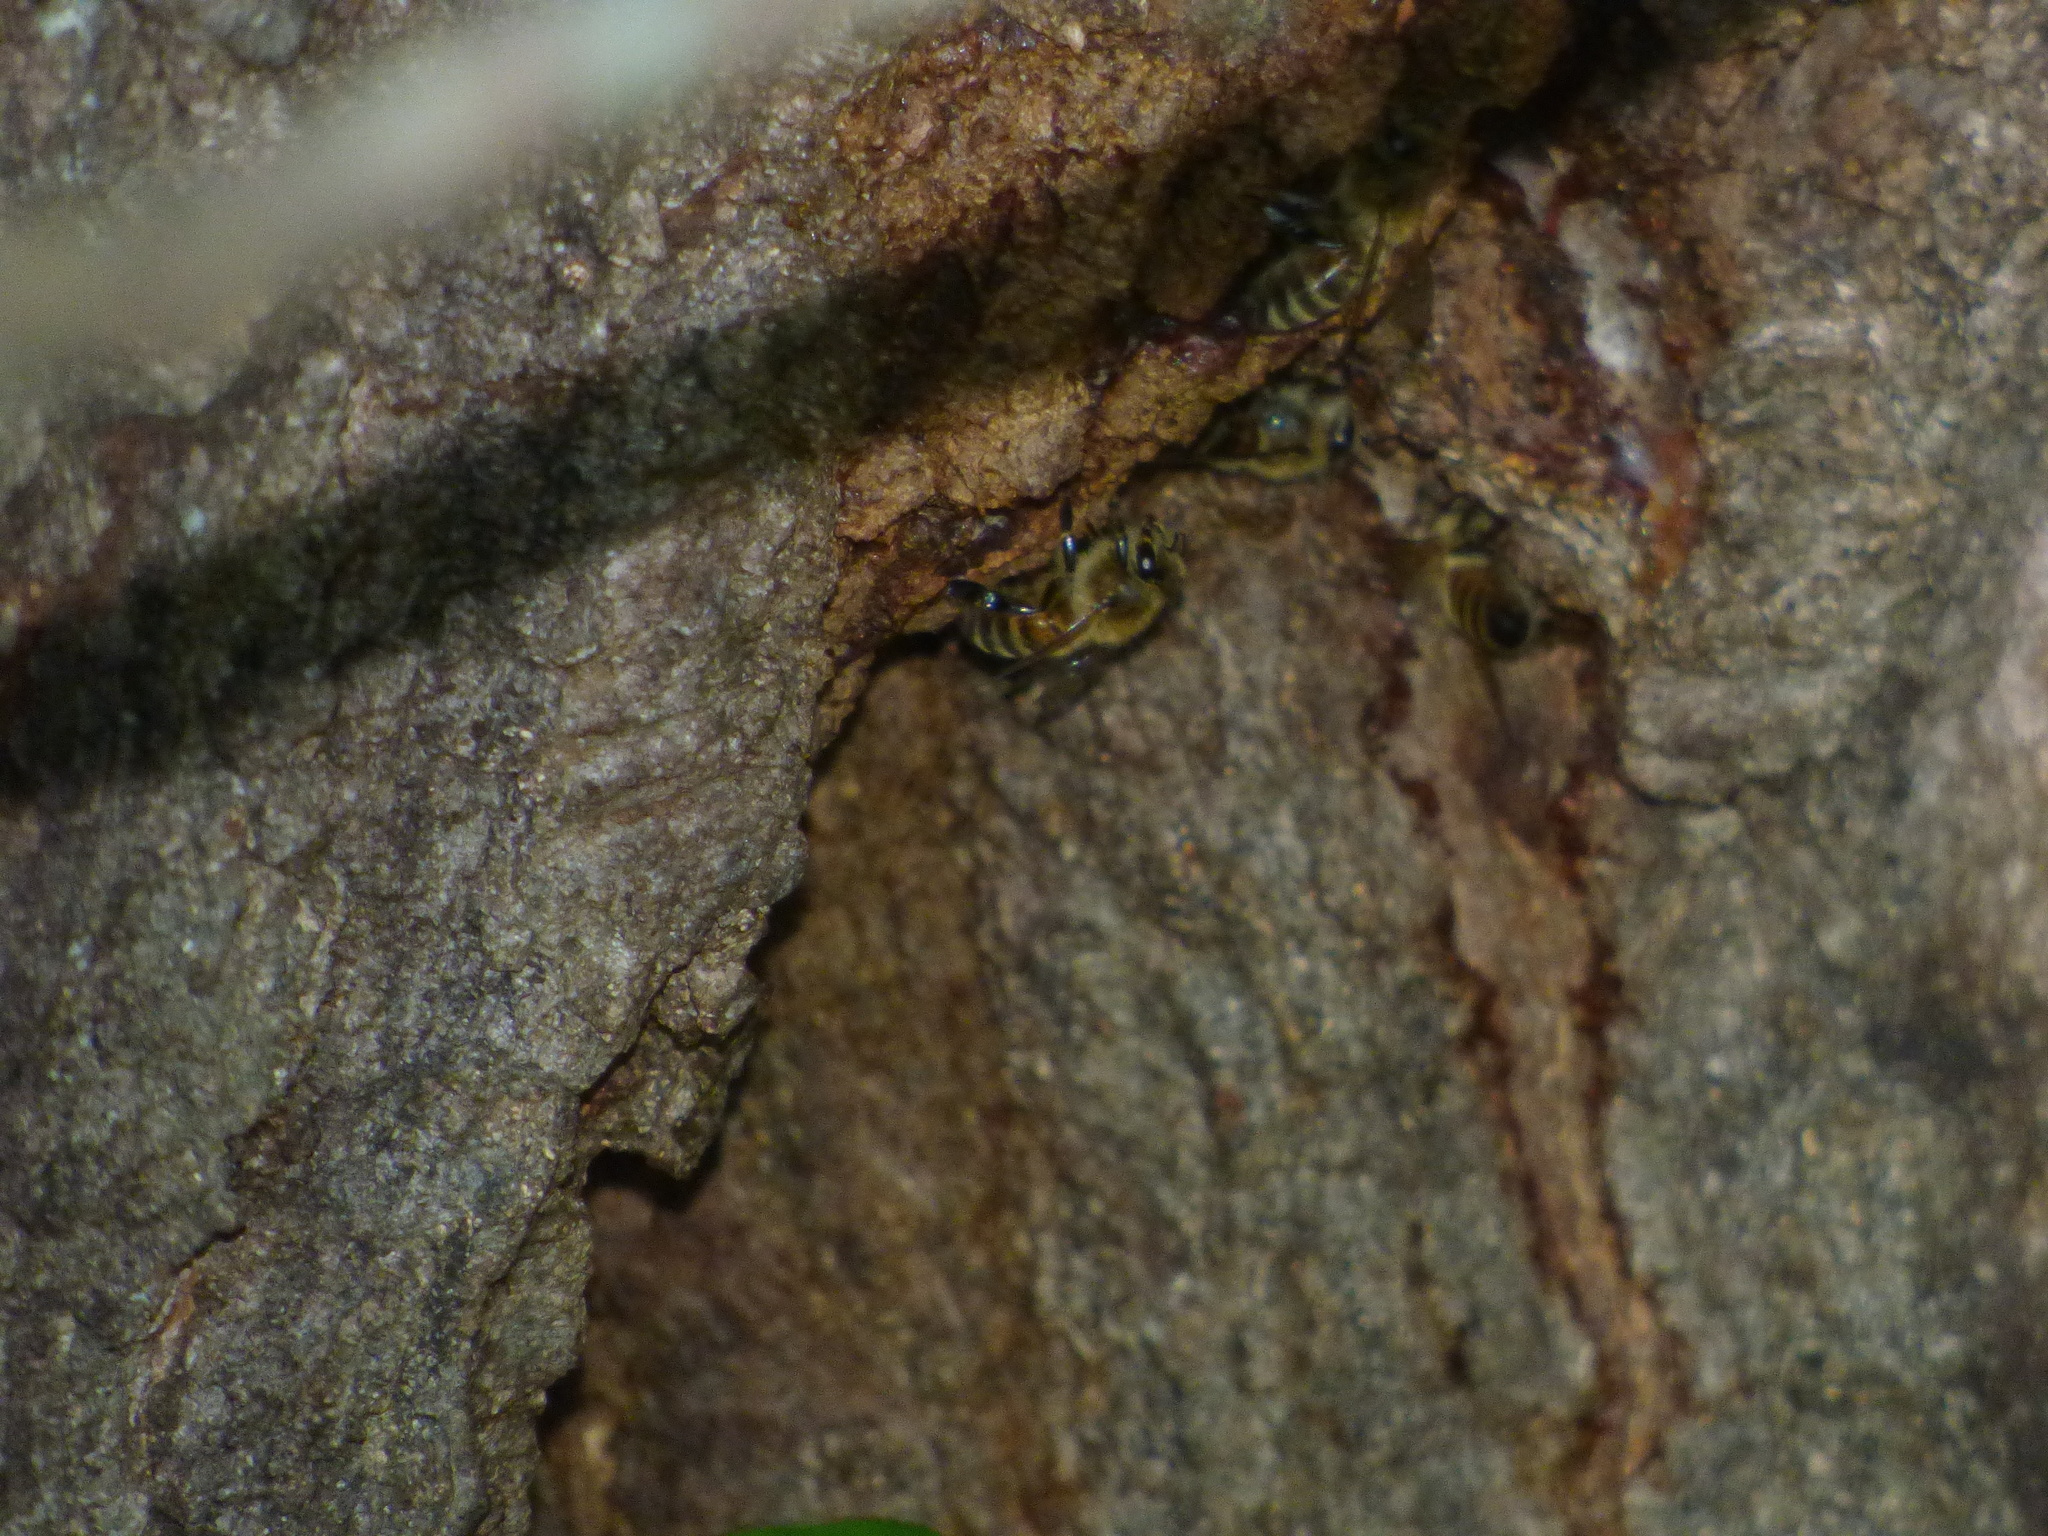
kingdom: Animalia
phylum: Arthropoda
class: Insecta
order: Hymenoptera
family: Apidae
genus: Apis
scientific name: Apis mellifera
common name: Honey bee
